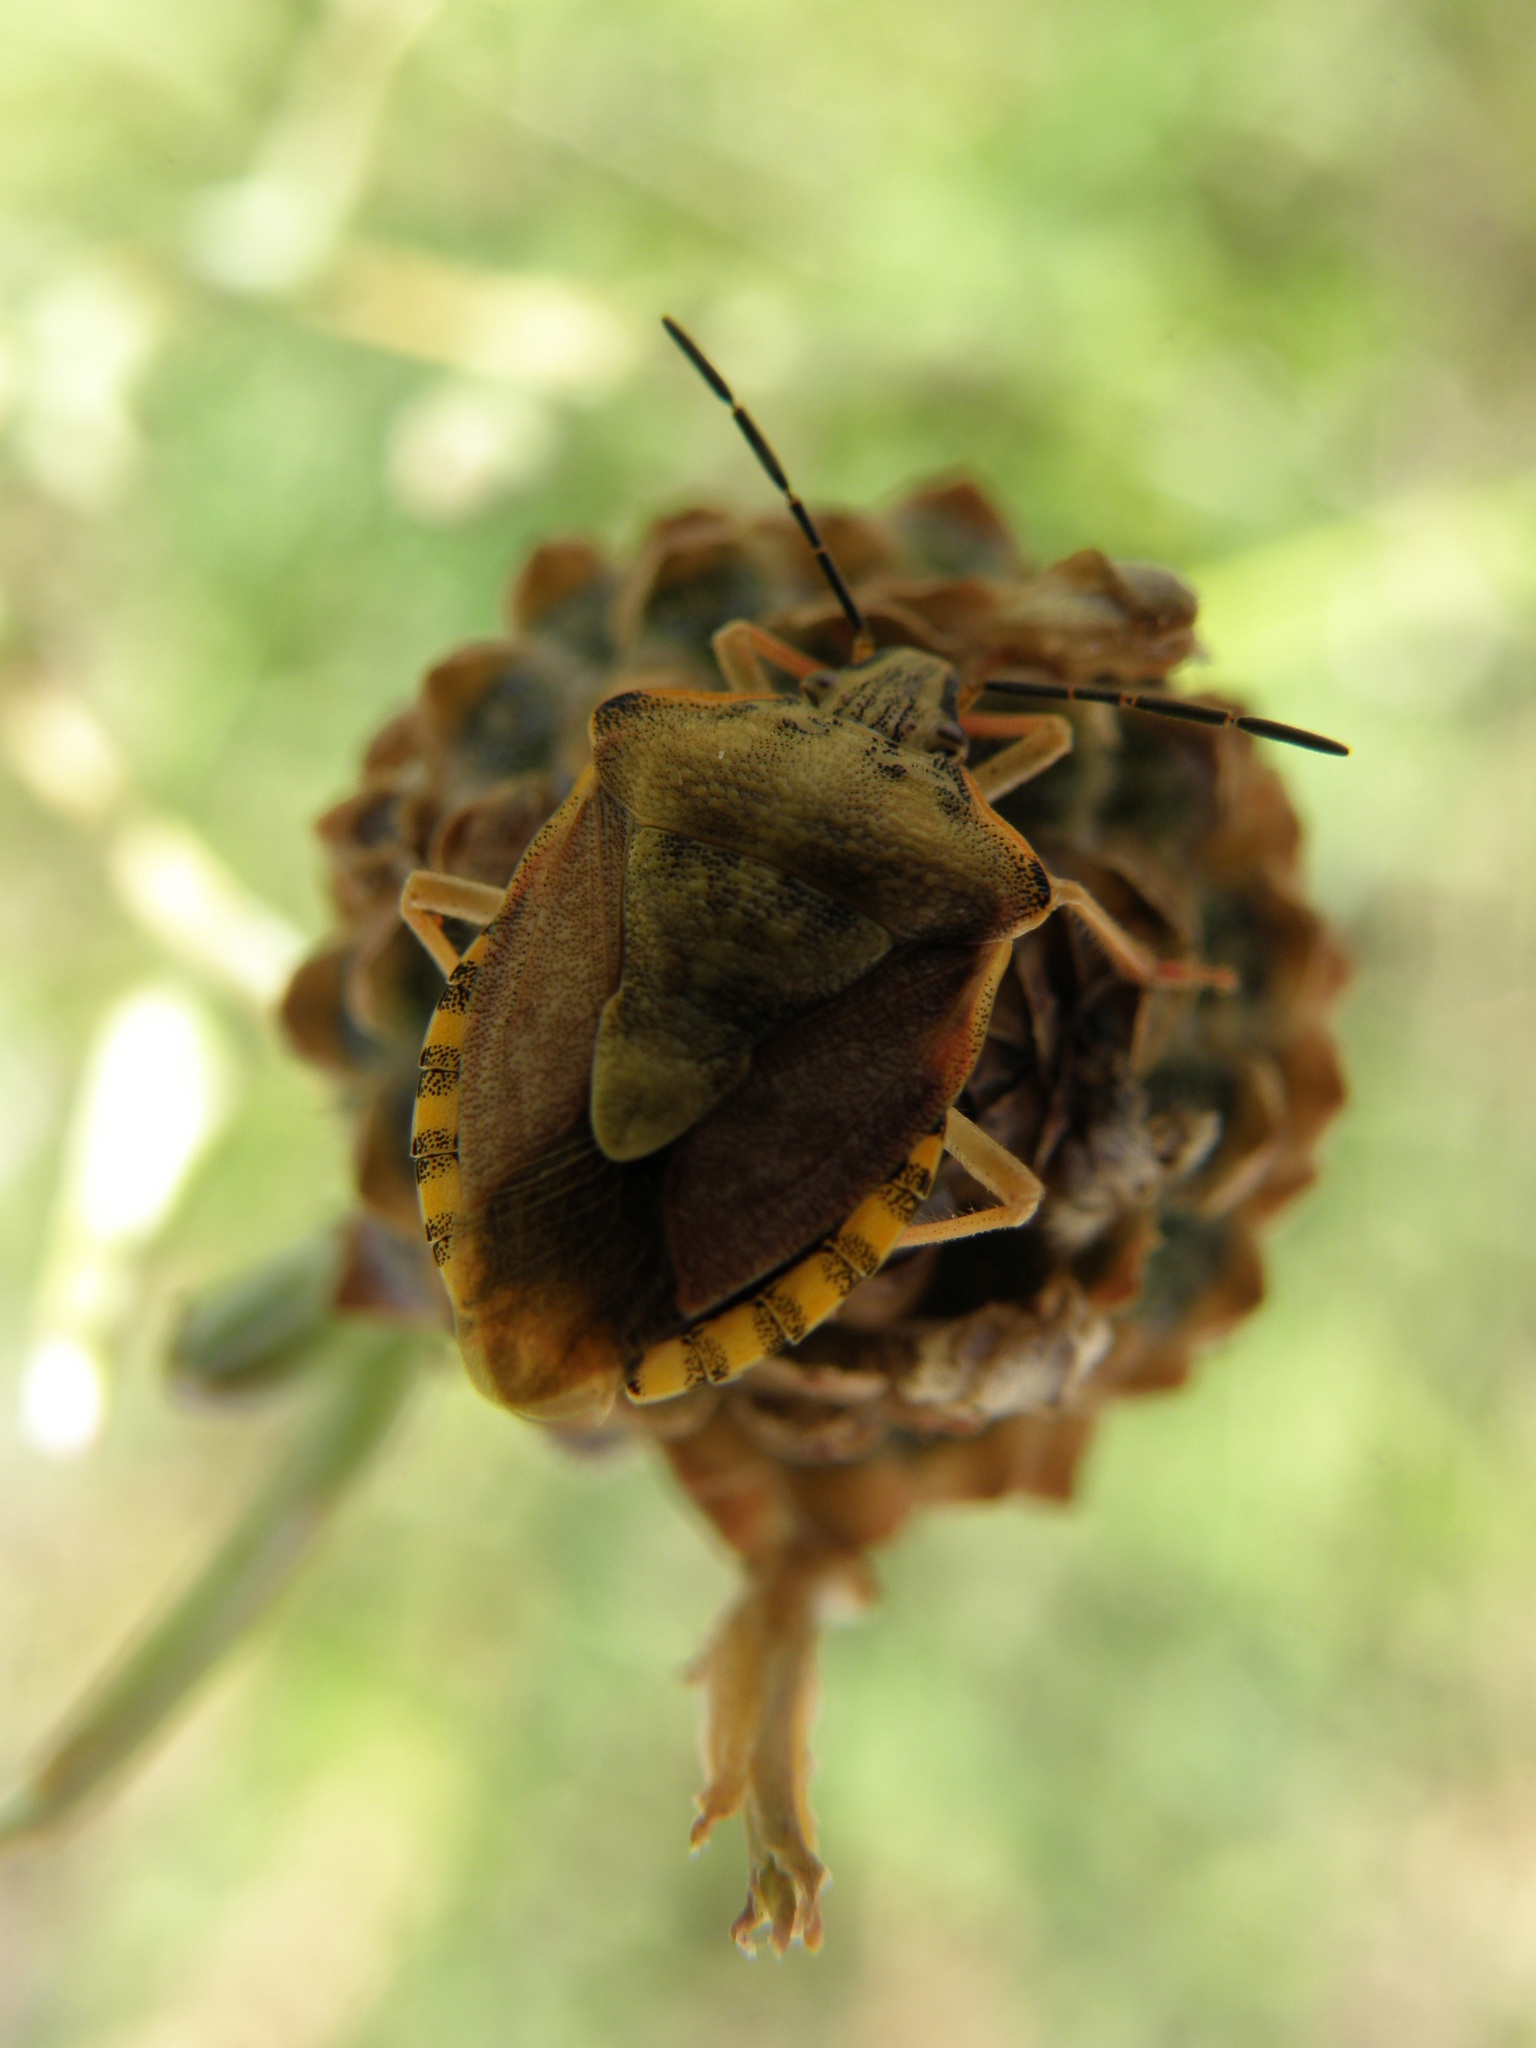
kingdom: Animalia
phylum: Arthropoda
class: Insecta
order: Hemiptera
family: Pentatomidae
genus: Carpocoris
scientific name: Carpocoris purpureipennis
